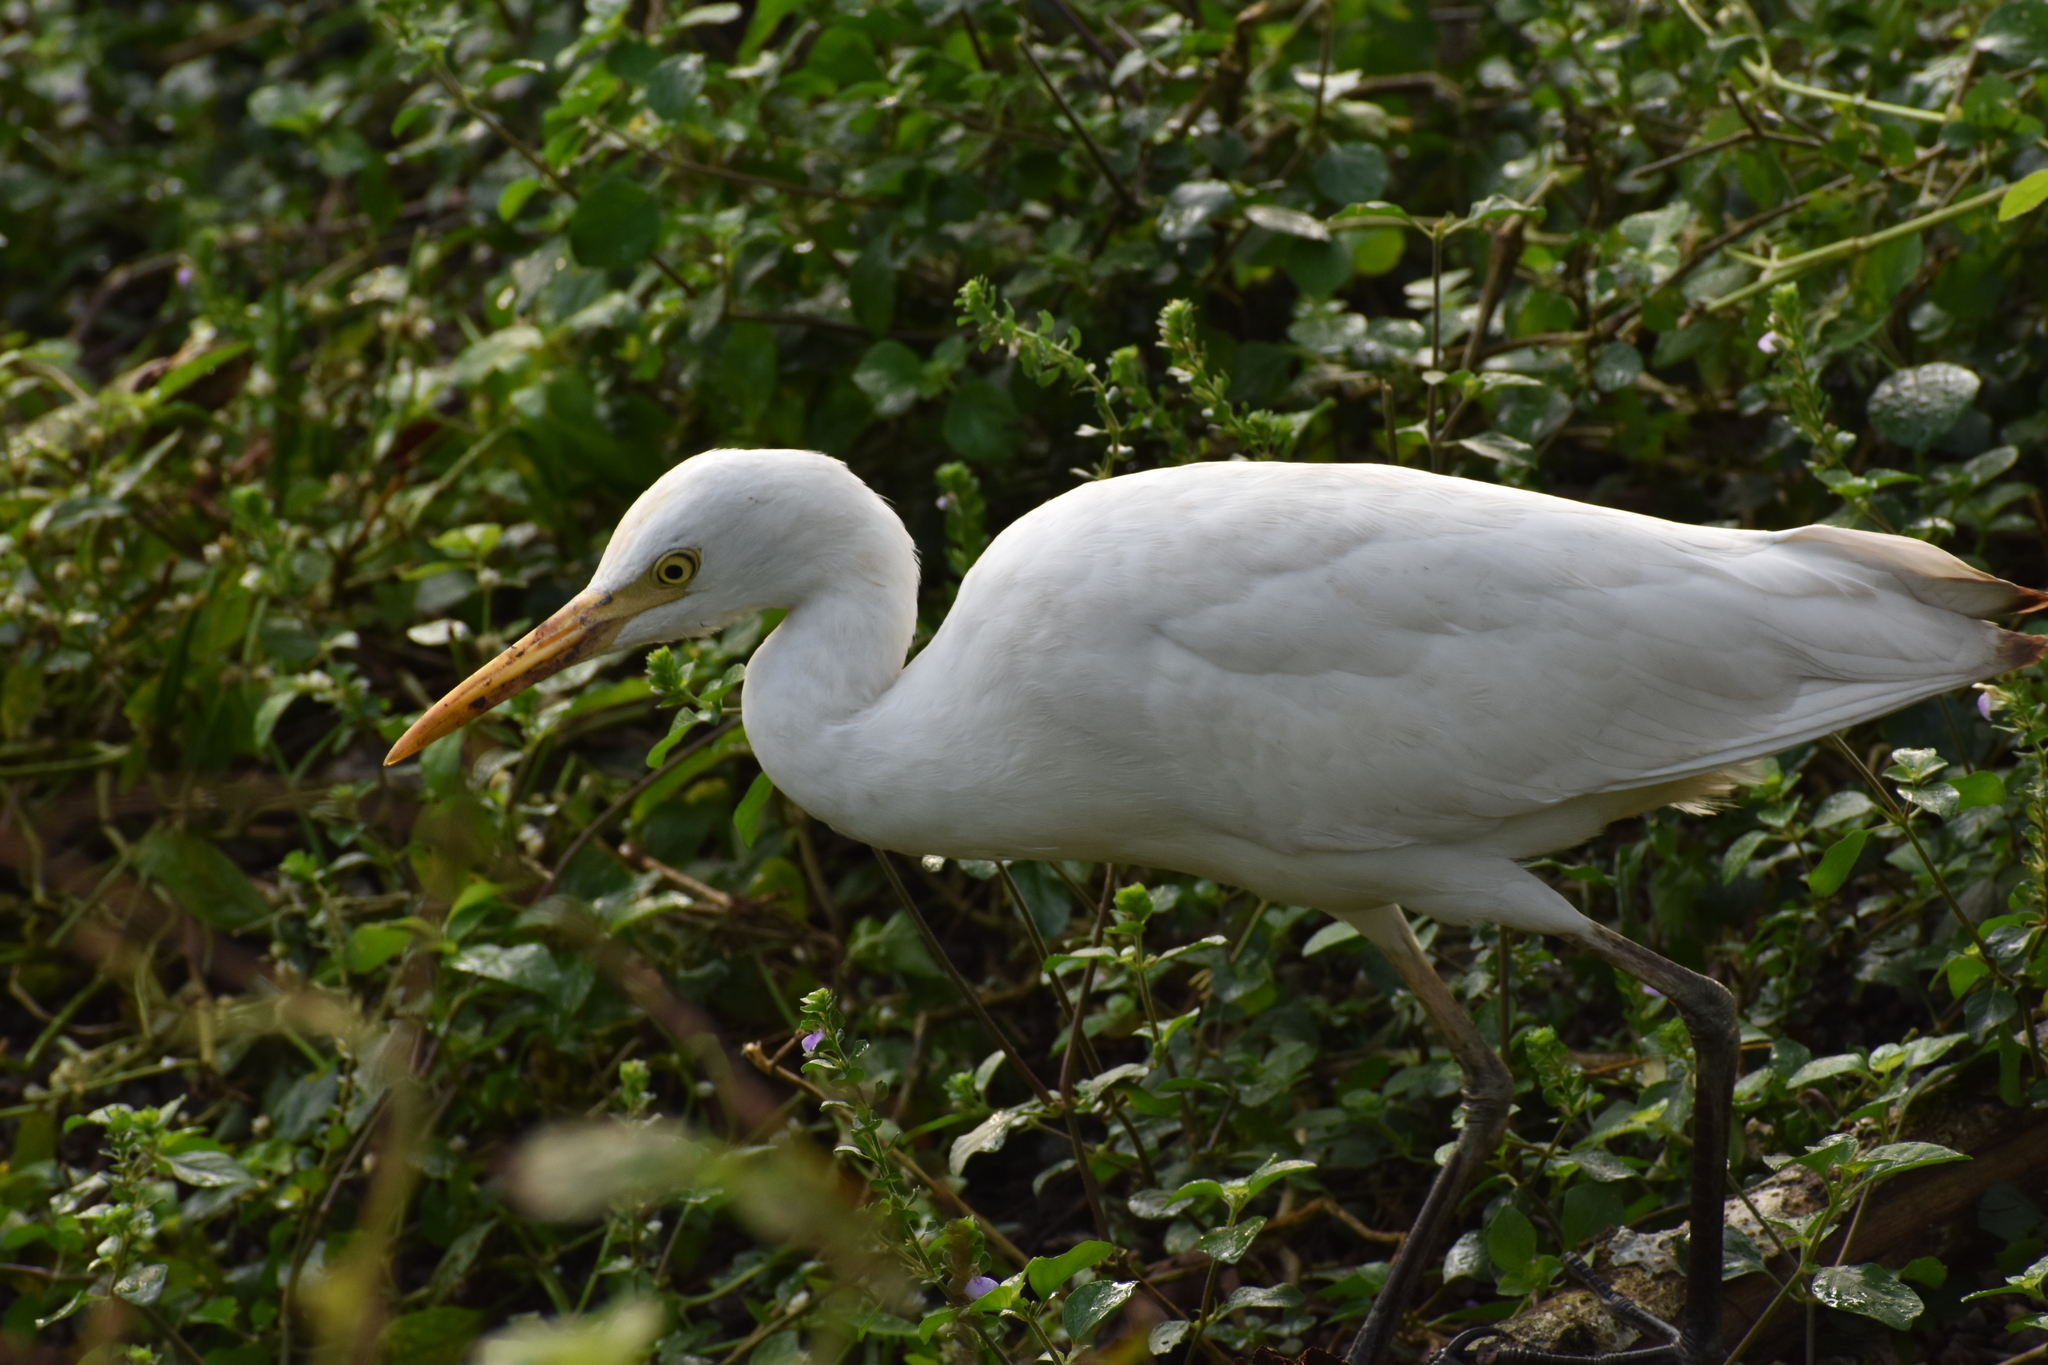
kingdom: Animalia
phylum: Chordata
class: Aves
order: Pelecaniformes
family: Ardeidae
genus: Bubulcus
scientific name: Bubulcus coromandus
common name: Eastern cattle egret
